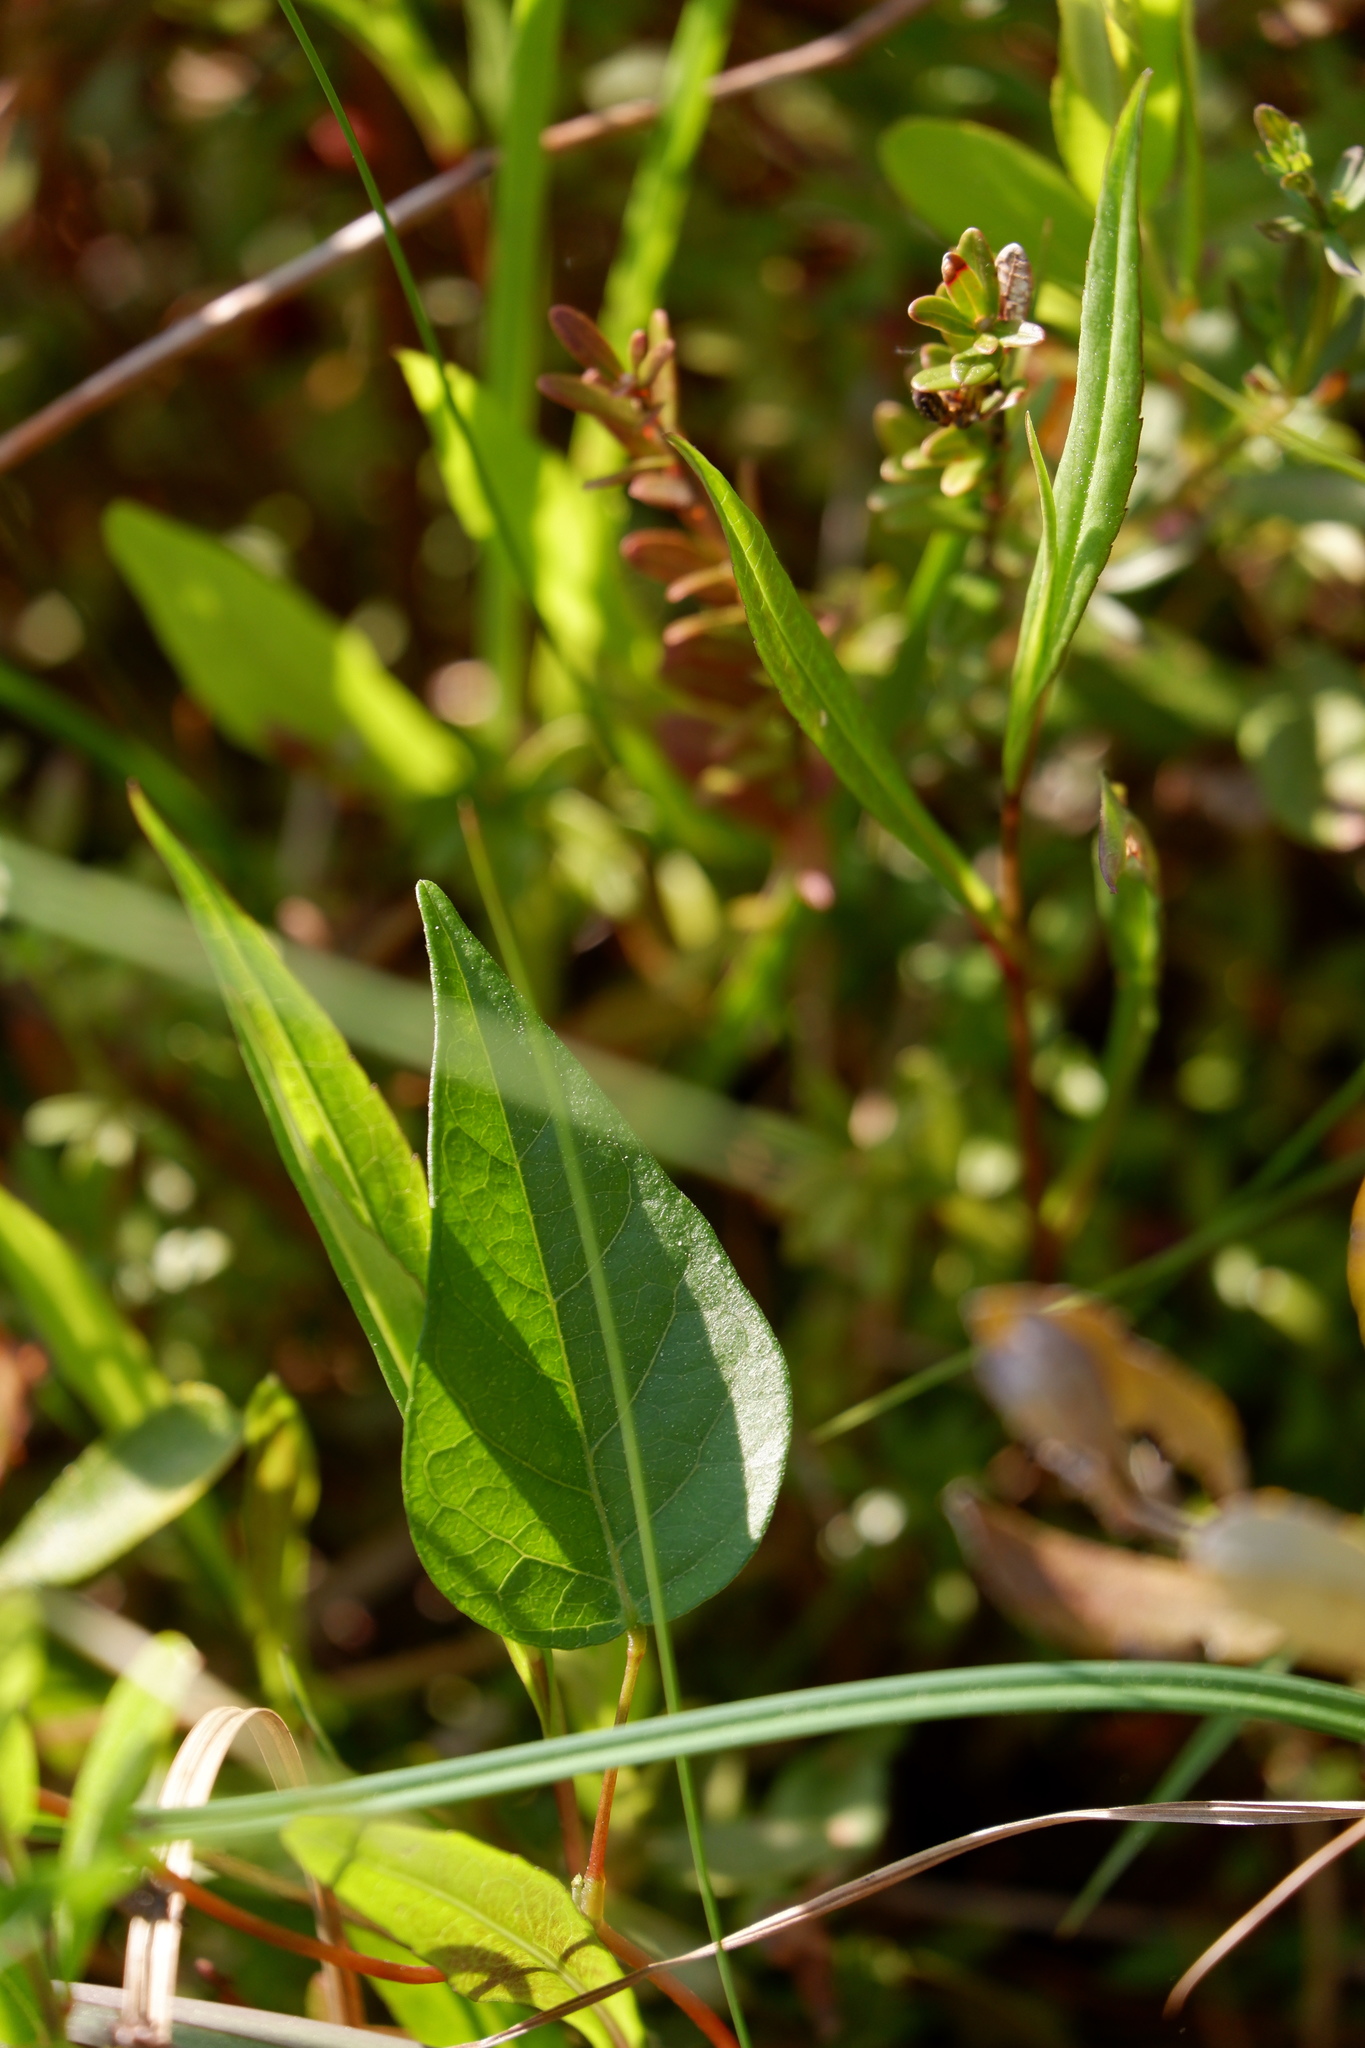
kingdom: Plantae
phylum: Tracheophyta
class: Magnoliopsida
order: Fabales
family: Fabaceae
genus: Apios
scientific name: Apios americana
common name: American potato-bean
